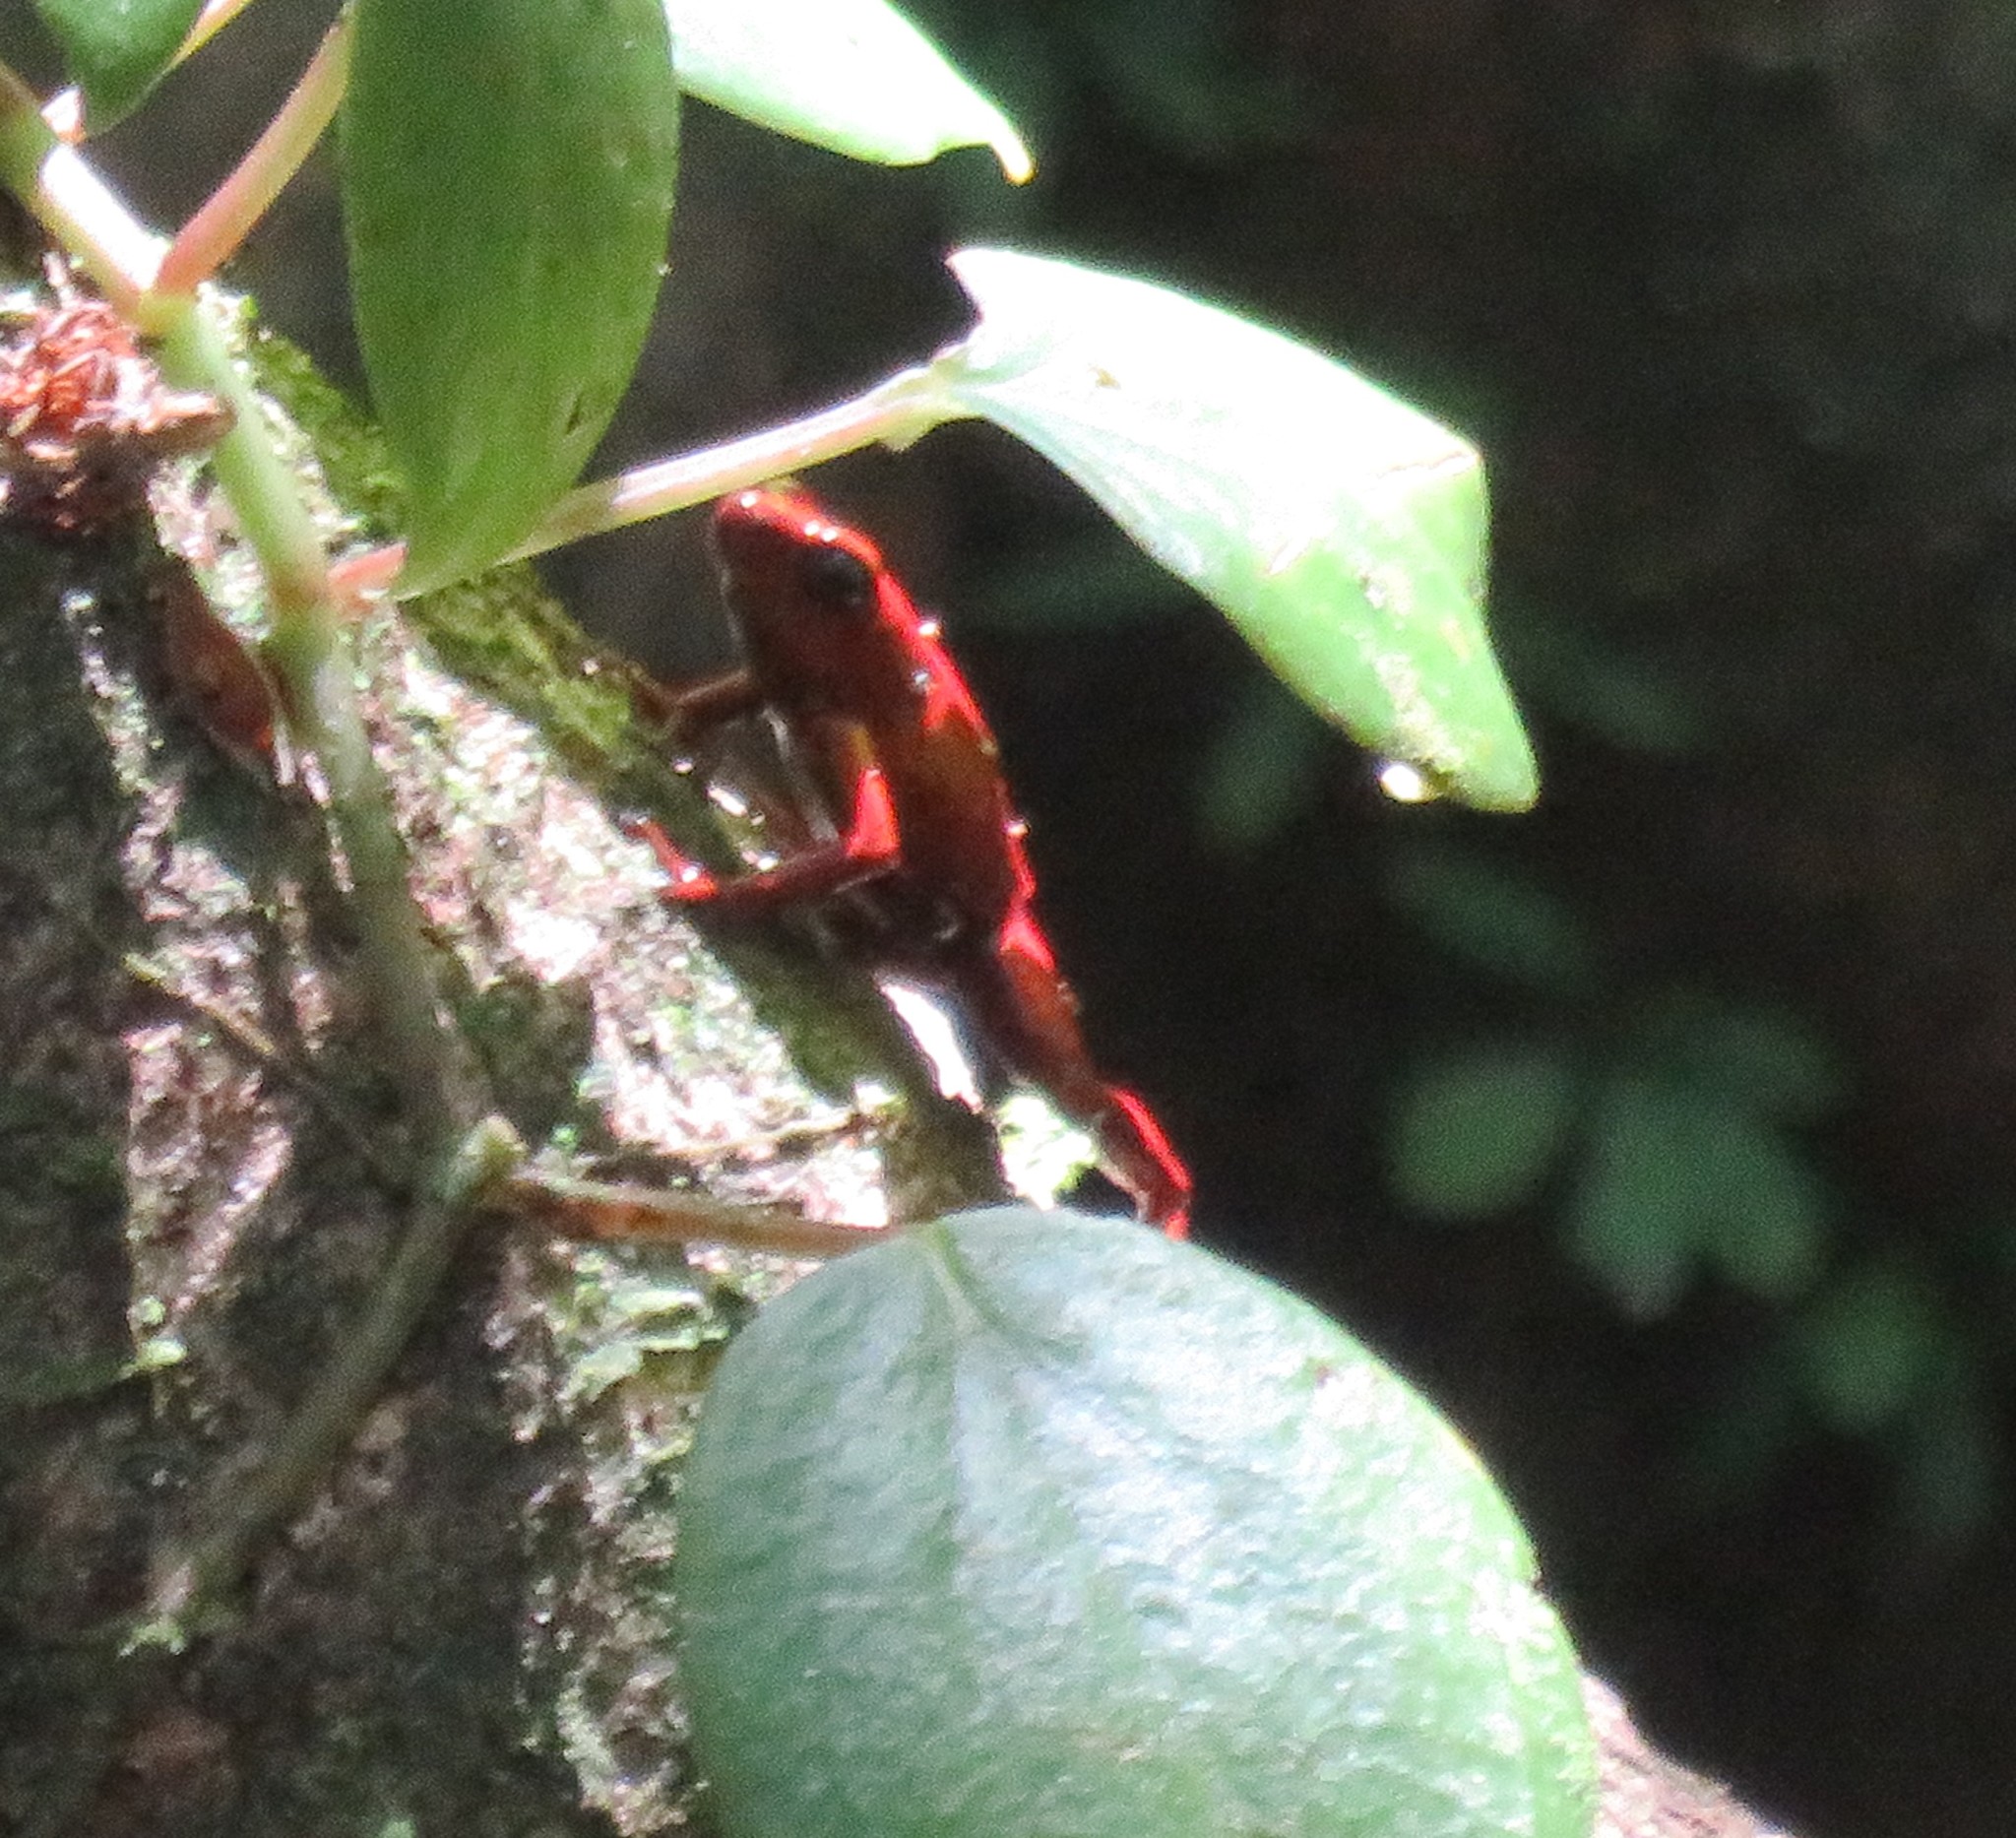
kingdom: Animalia
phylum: Chordata
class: Amphibia
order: Anura
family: Dendrobatidae
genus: Oophaga
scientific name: Oophaga pumilio
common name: Flaming poison frog
